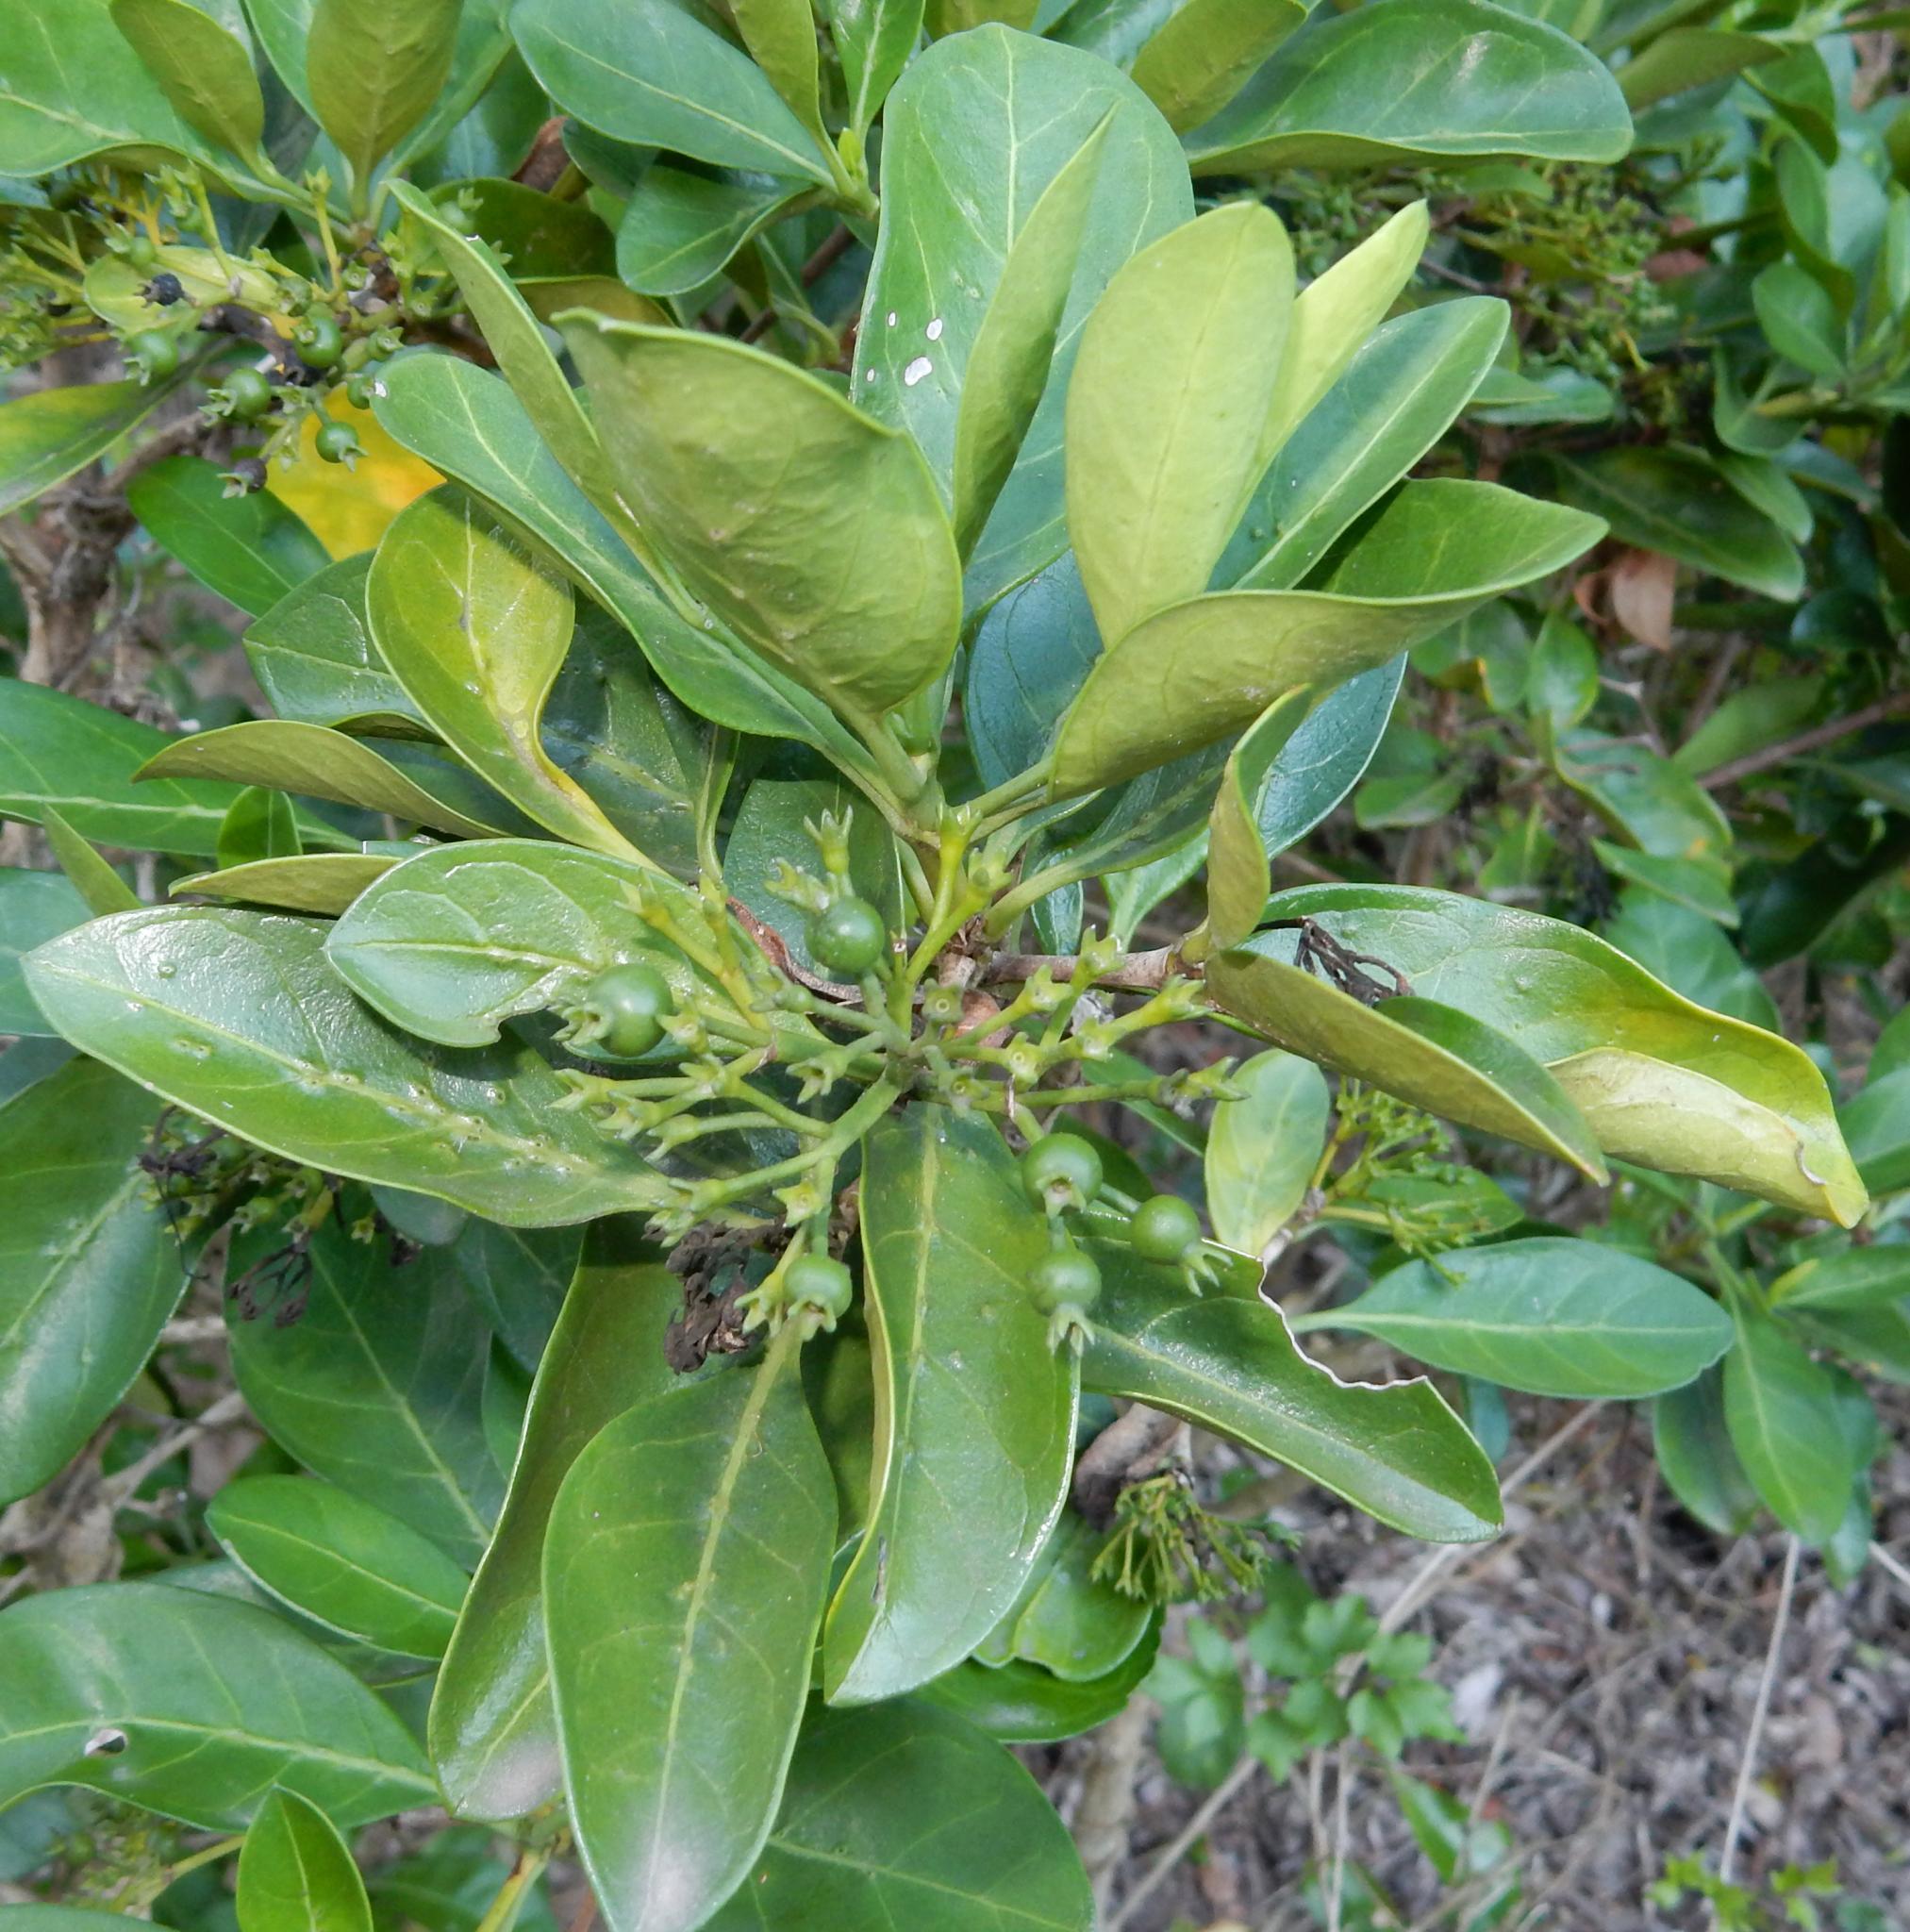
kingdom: Plantae
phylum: Tracheophyta
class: Magnoliopsida
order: Gentianales
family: Rubiaceae
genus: Pavetta
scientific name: Pavetta revoluta
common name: Dune brides-bush
